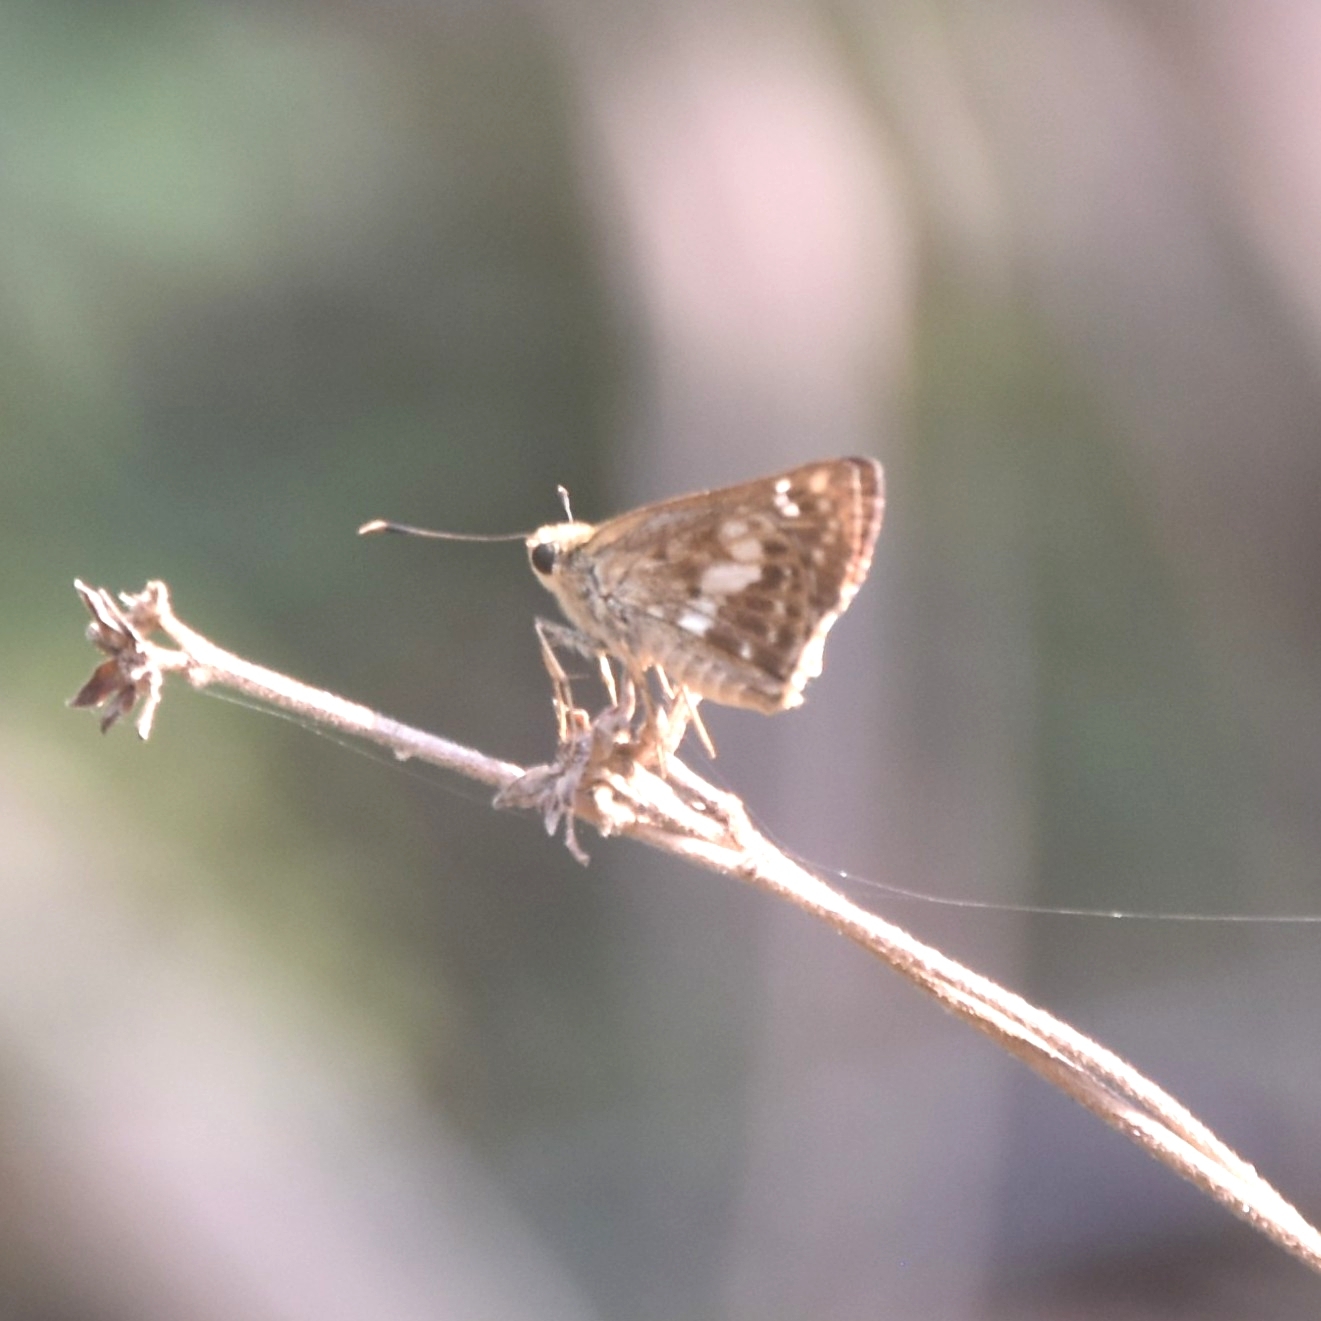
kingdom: Animalia
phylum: Arthropoda
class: Insecta
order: Lepidoptera
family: Hesperiidae
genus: Halpe
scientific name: Halpe porus
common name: Moore's ace
